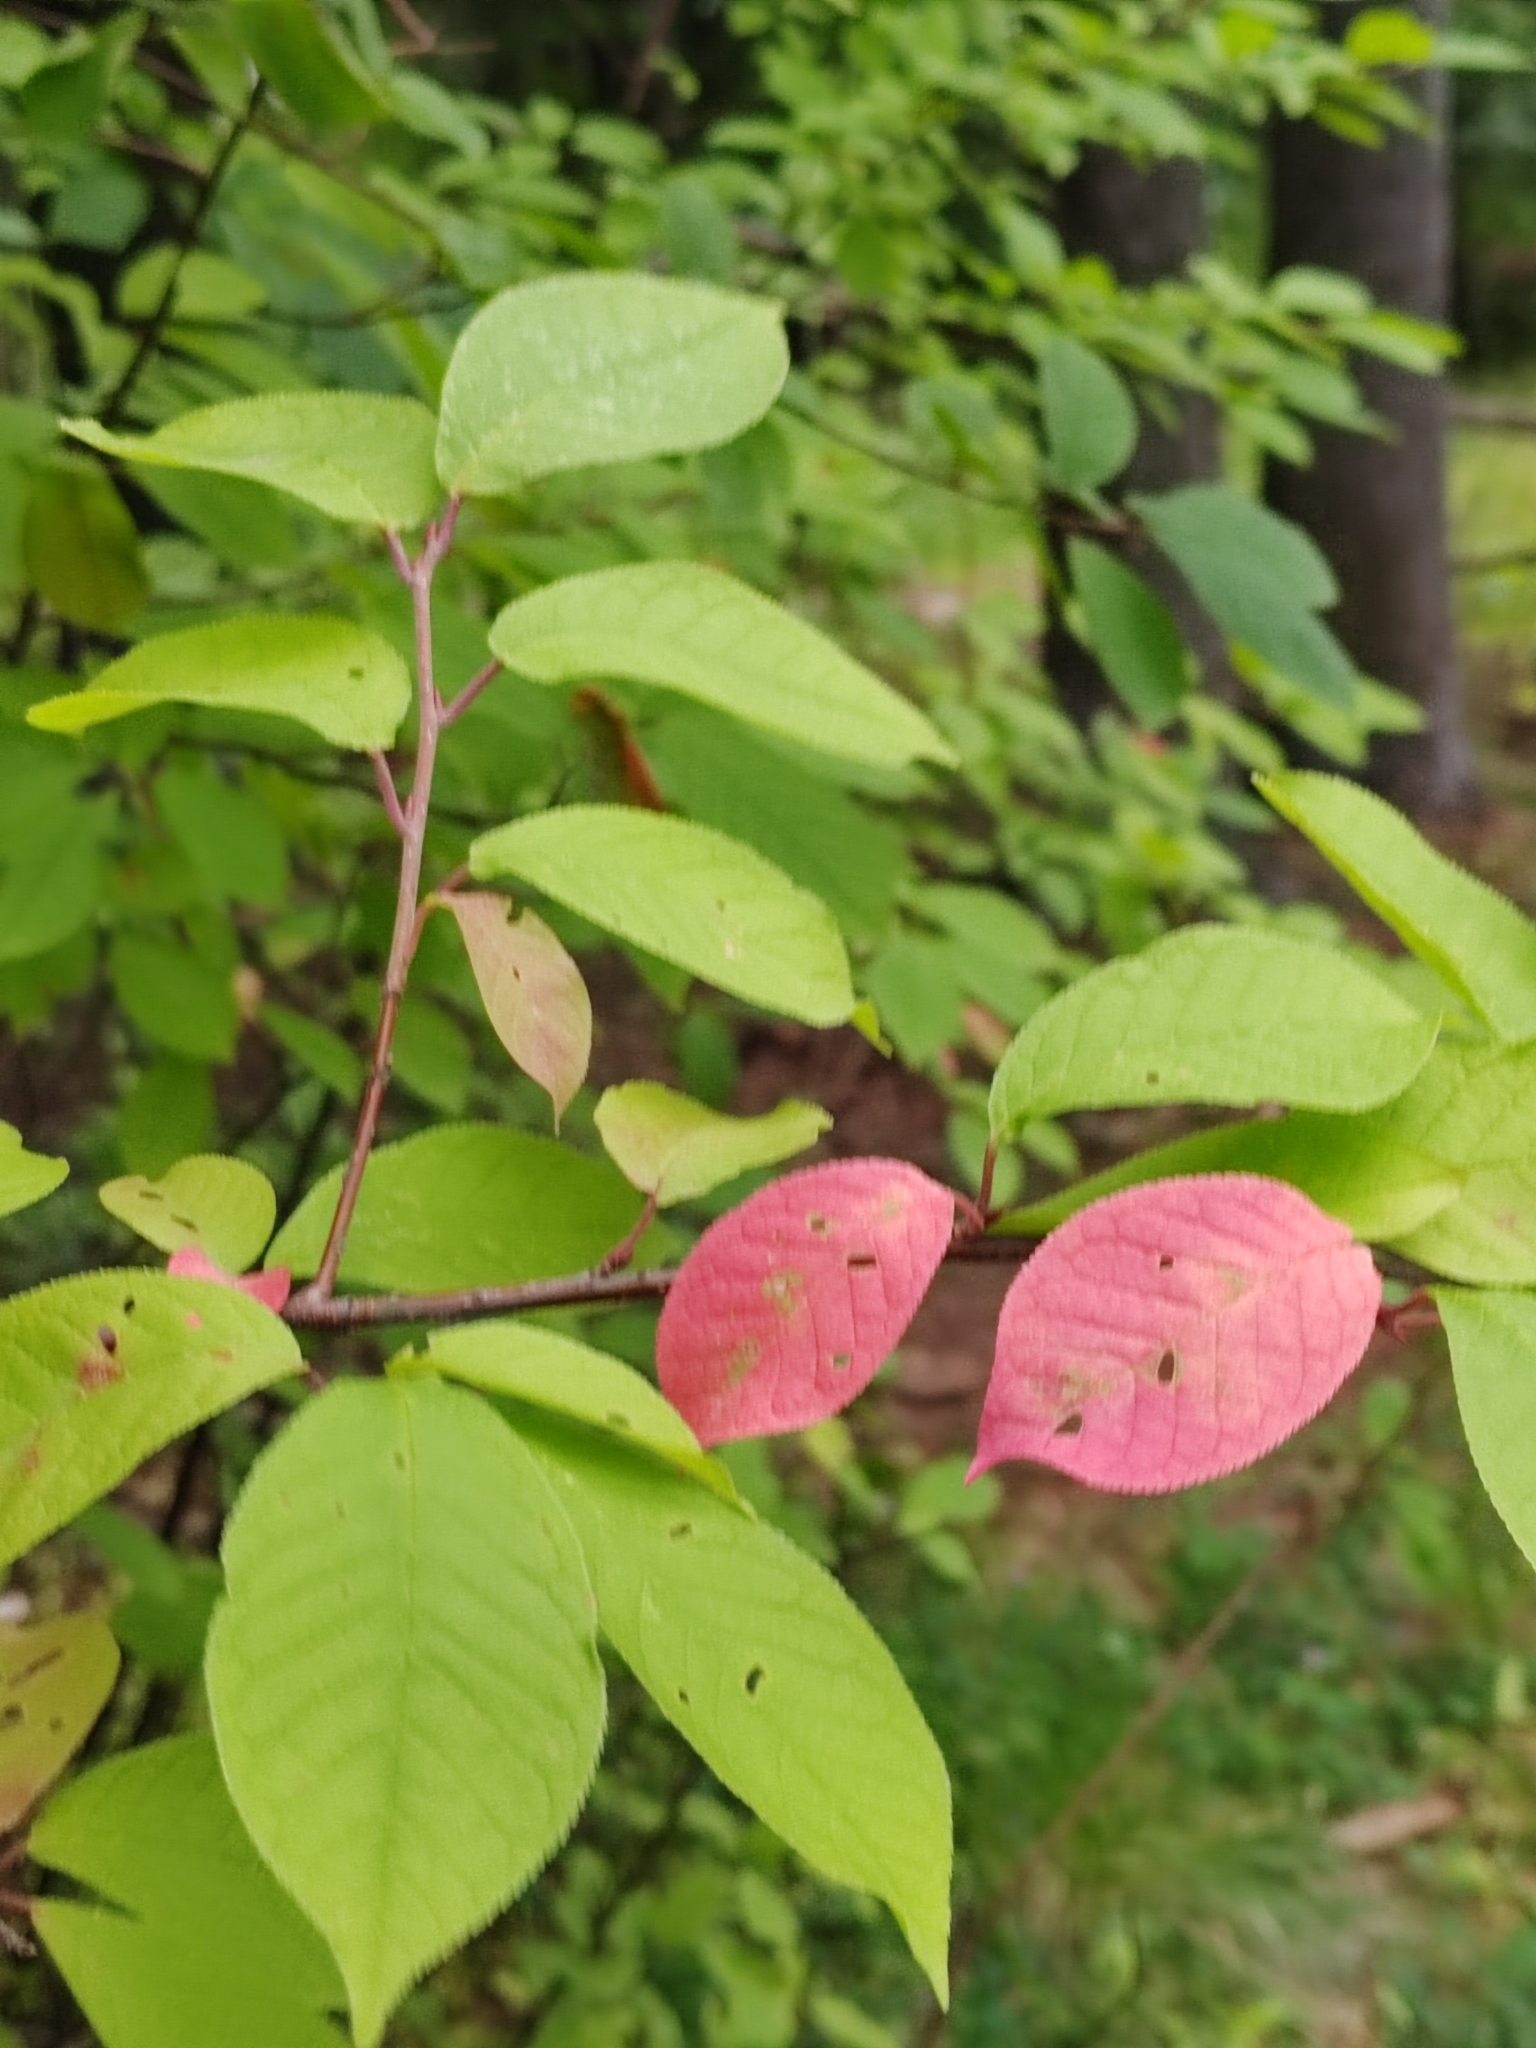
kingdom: Plantae
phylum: Tracheophyta
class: Magnoliopsida
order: Rosales
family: Rosaceae
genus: Prunus
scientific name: Prunus padus
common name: Bird cherry
